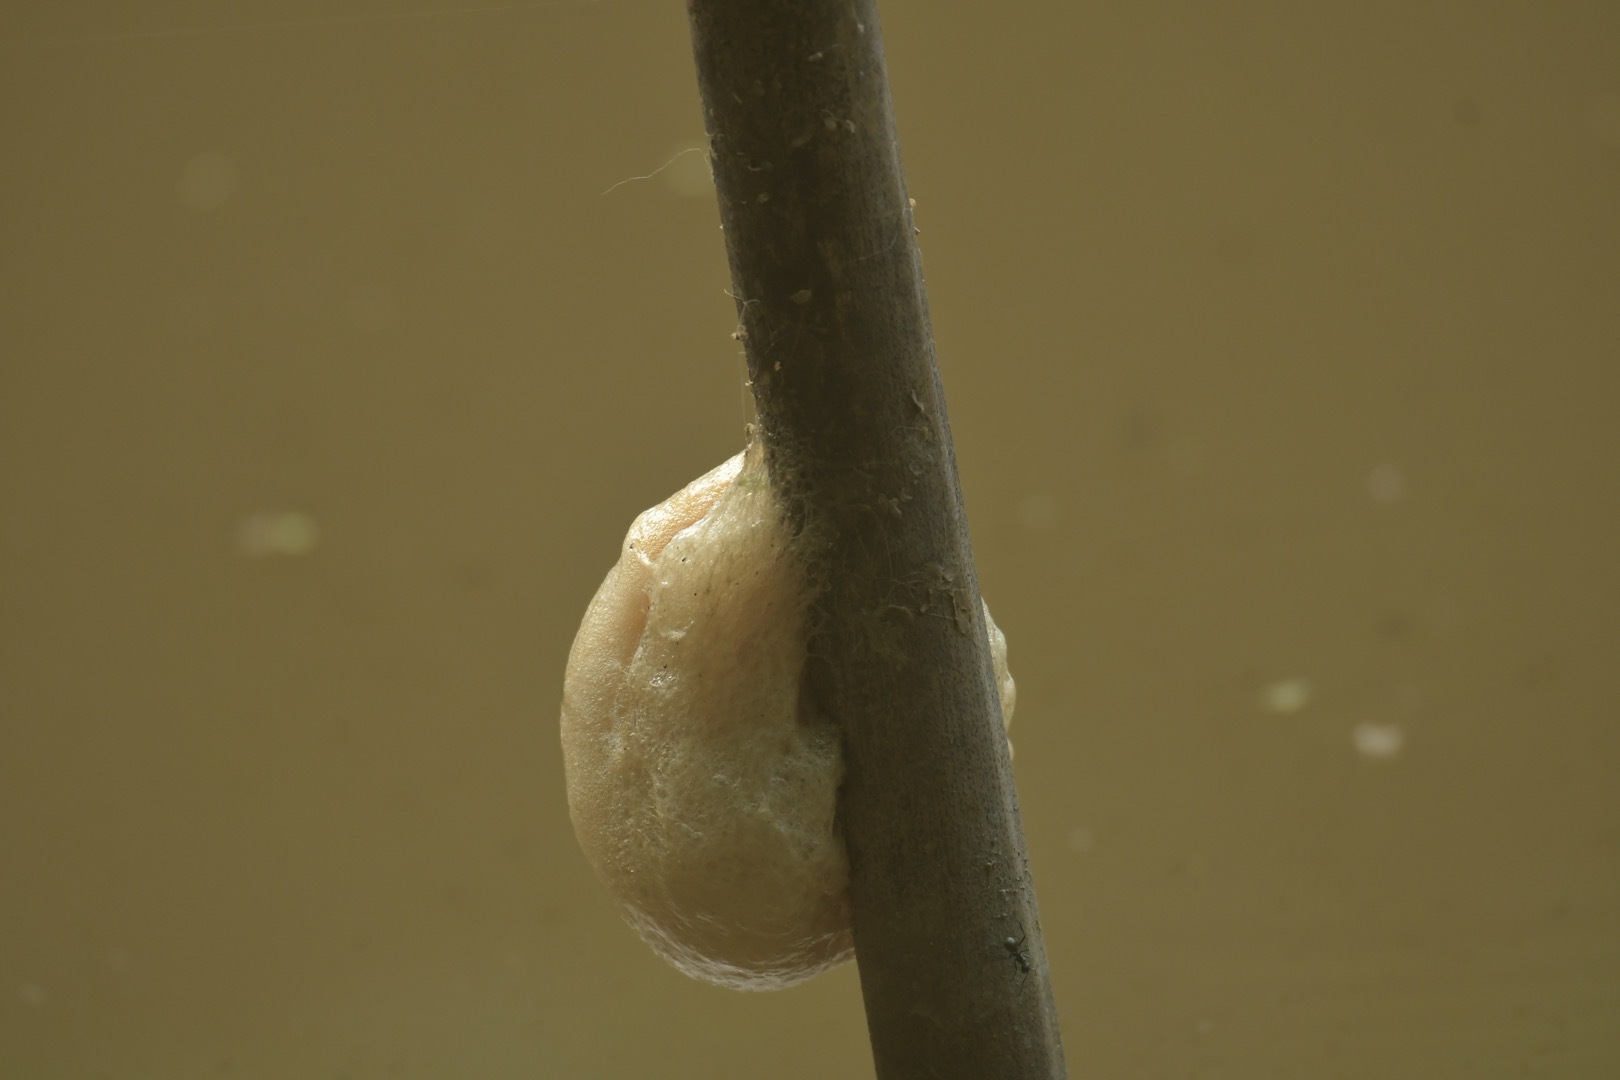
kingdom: Animalia
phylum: Chordata
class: Amphibia
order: Anura
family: Rhacophoridae
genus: Polypedates
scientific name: Polypedates megacephalus
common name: Hong kong whipping frog
